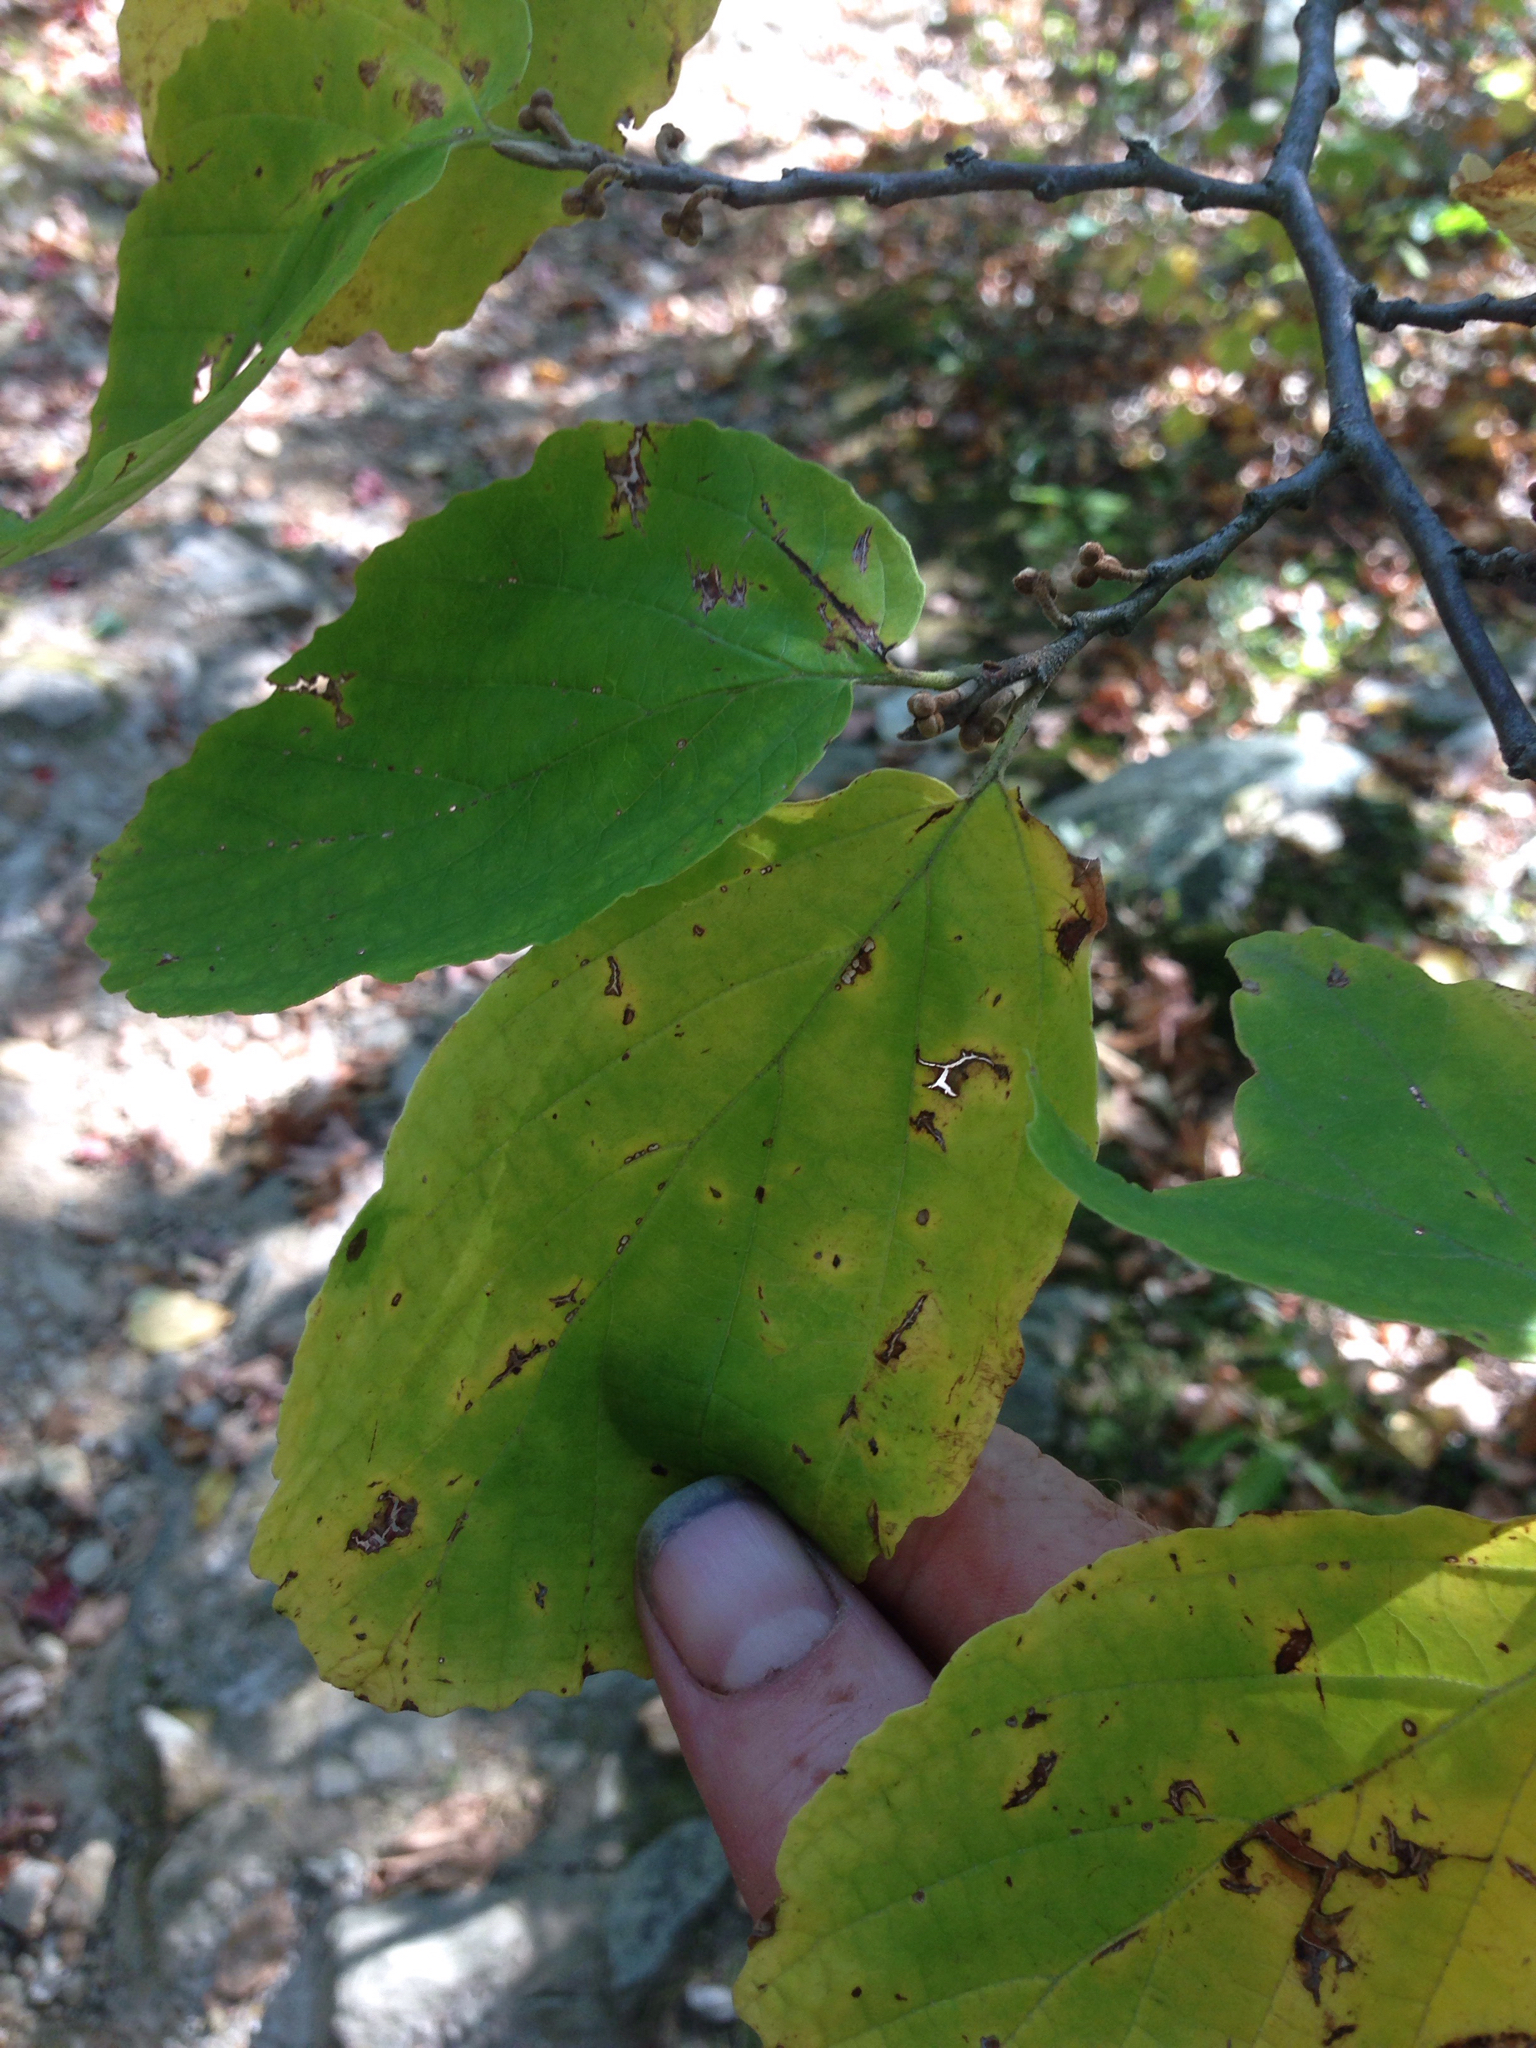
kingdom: Plantae
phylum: Tracheophyta
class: Magnoliopsida
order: Saxifragales
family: Hamamelidaceae
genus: Hamamelis
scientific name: Hamamelis virginiana
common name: Witch-hazel
